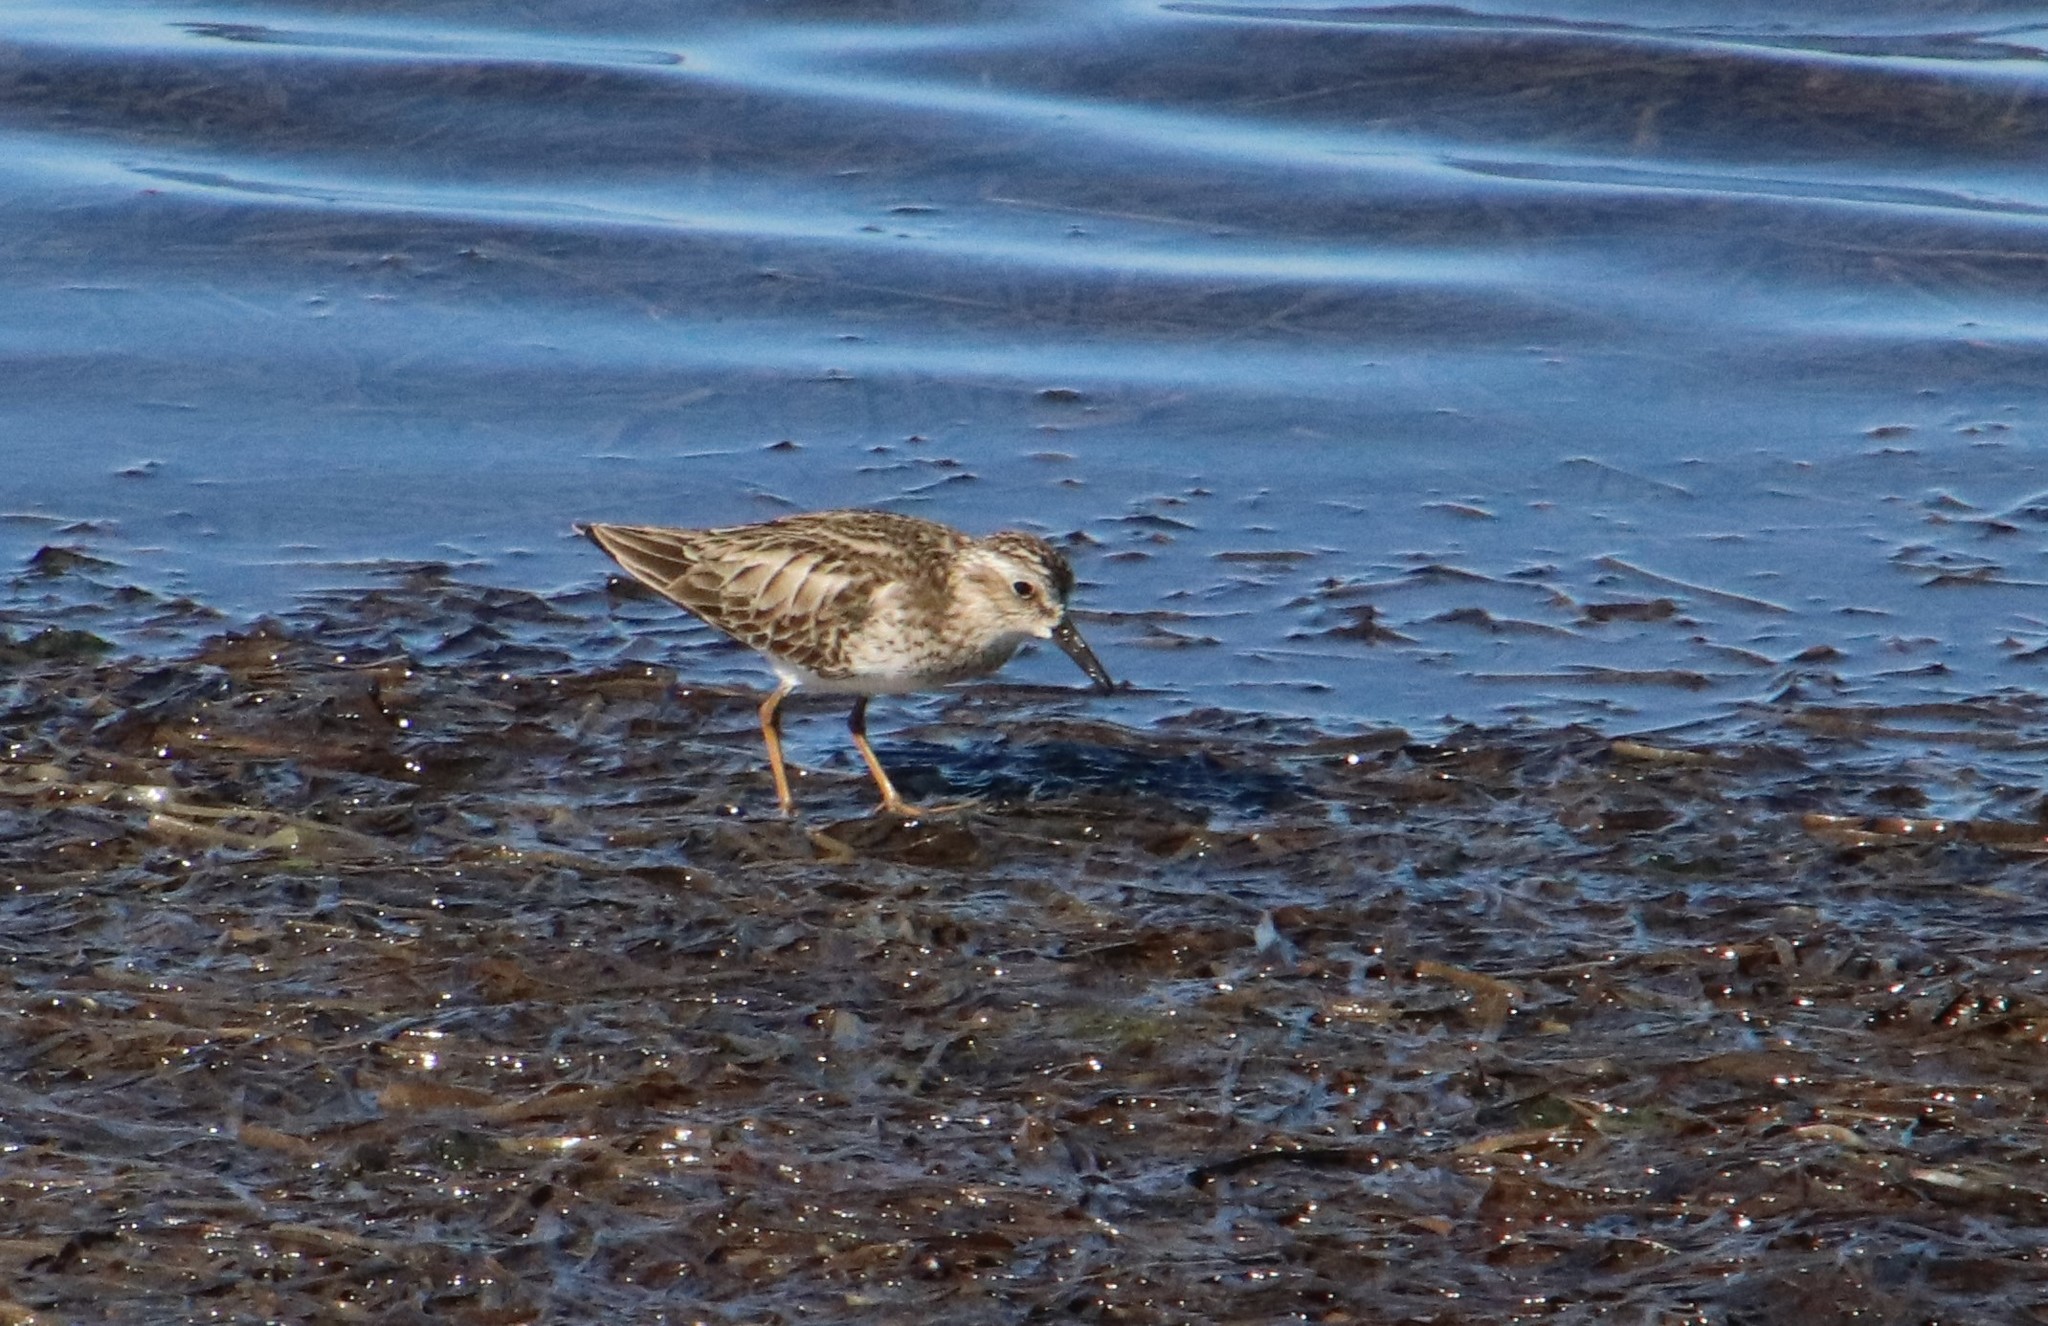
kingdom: Animalia
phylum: Chordata
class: Aves
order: Charadriiformes
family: Scolopacidae
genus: Calidris
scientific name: Calidris minutilla
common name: Least sandpiper
